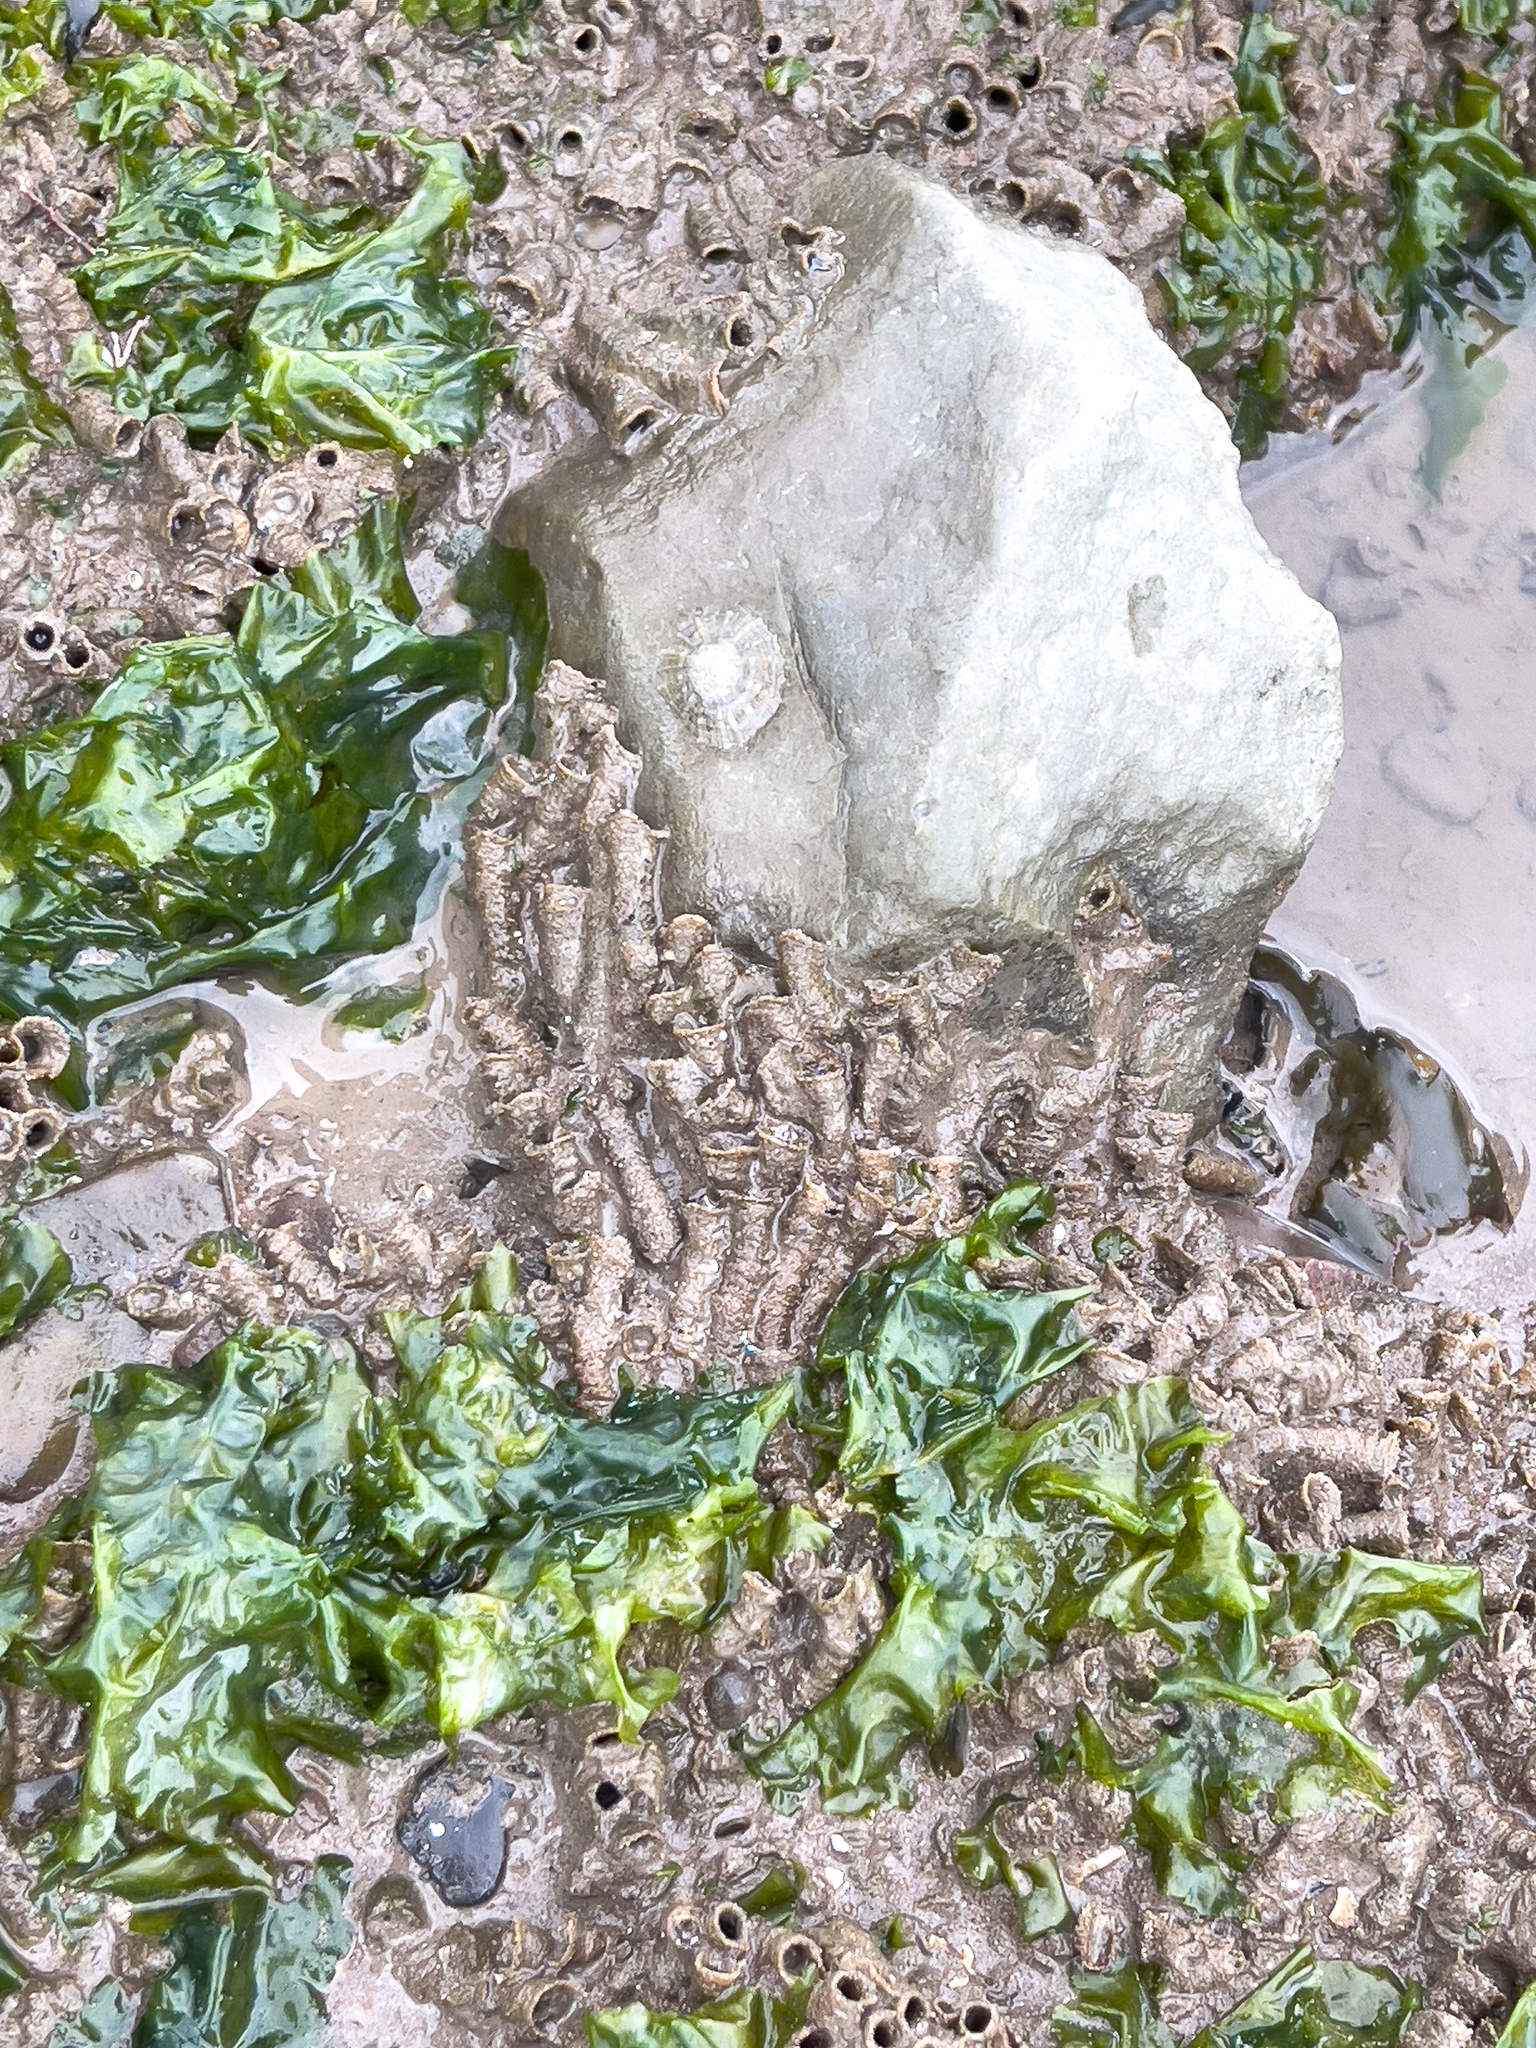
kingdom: Animalia
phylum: Annelida
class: Polychaeta
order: Sabellida
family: Sabellariidae
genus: Sabellaria
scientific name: Sabellaria alveolata
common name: Honeycomb worm
